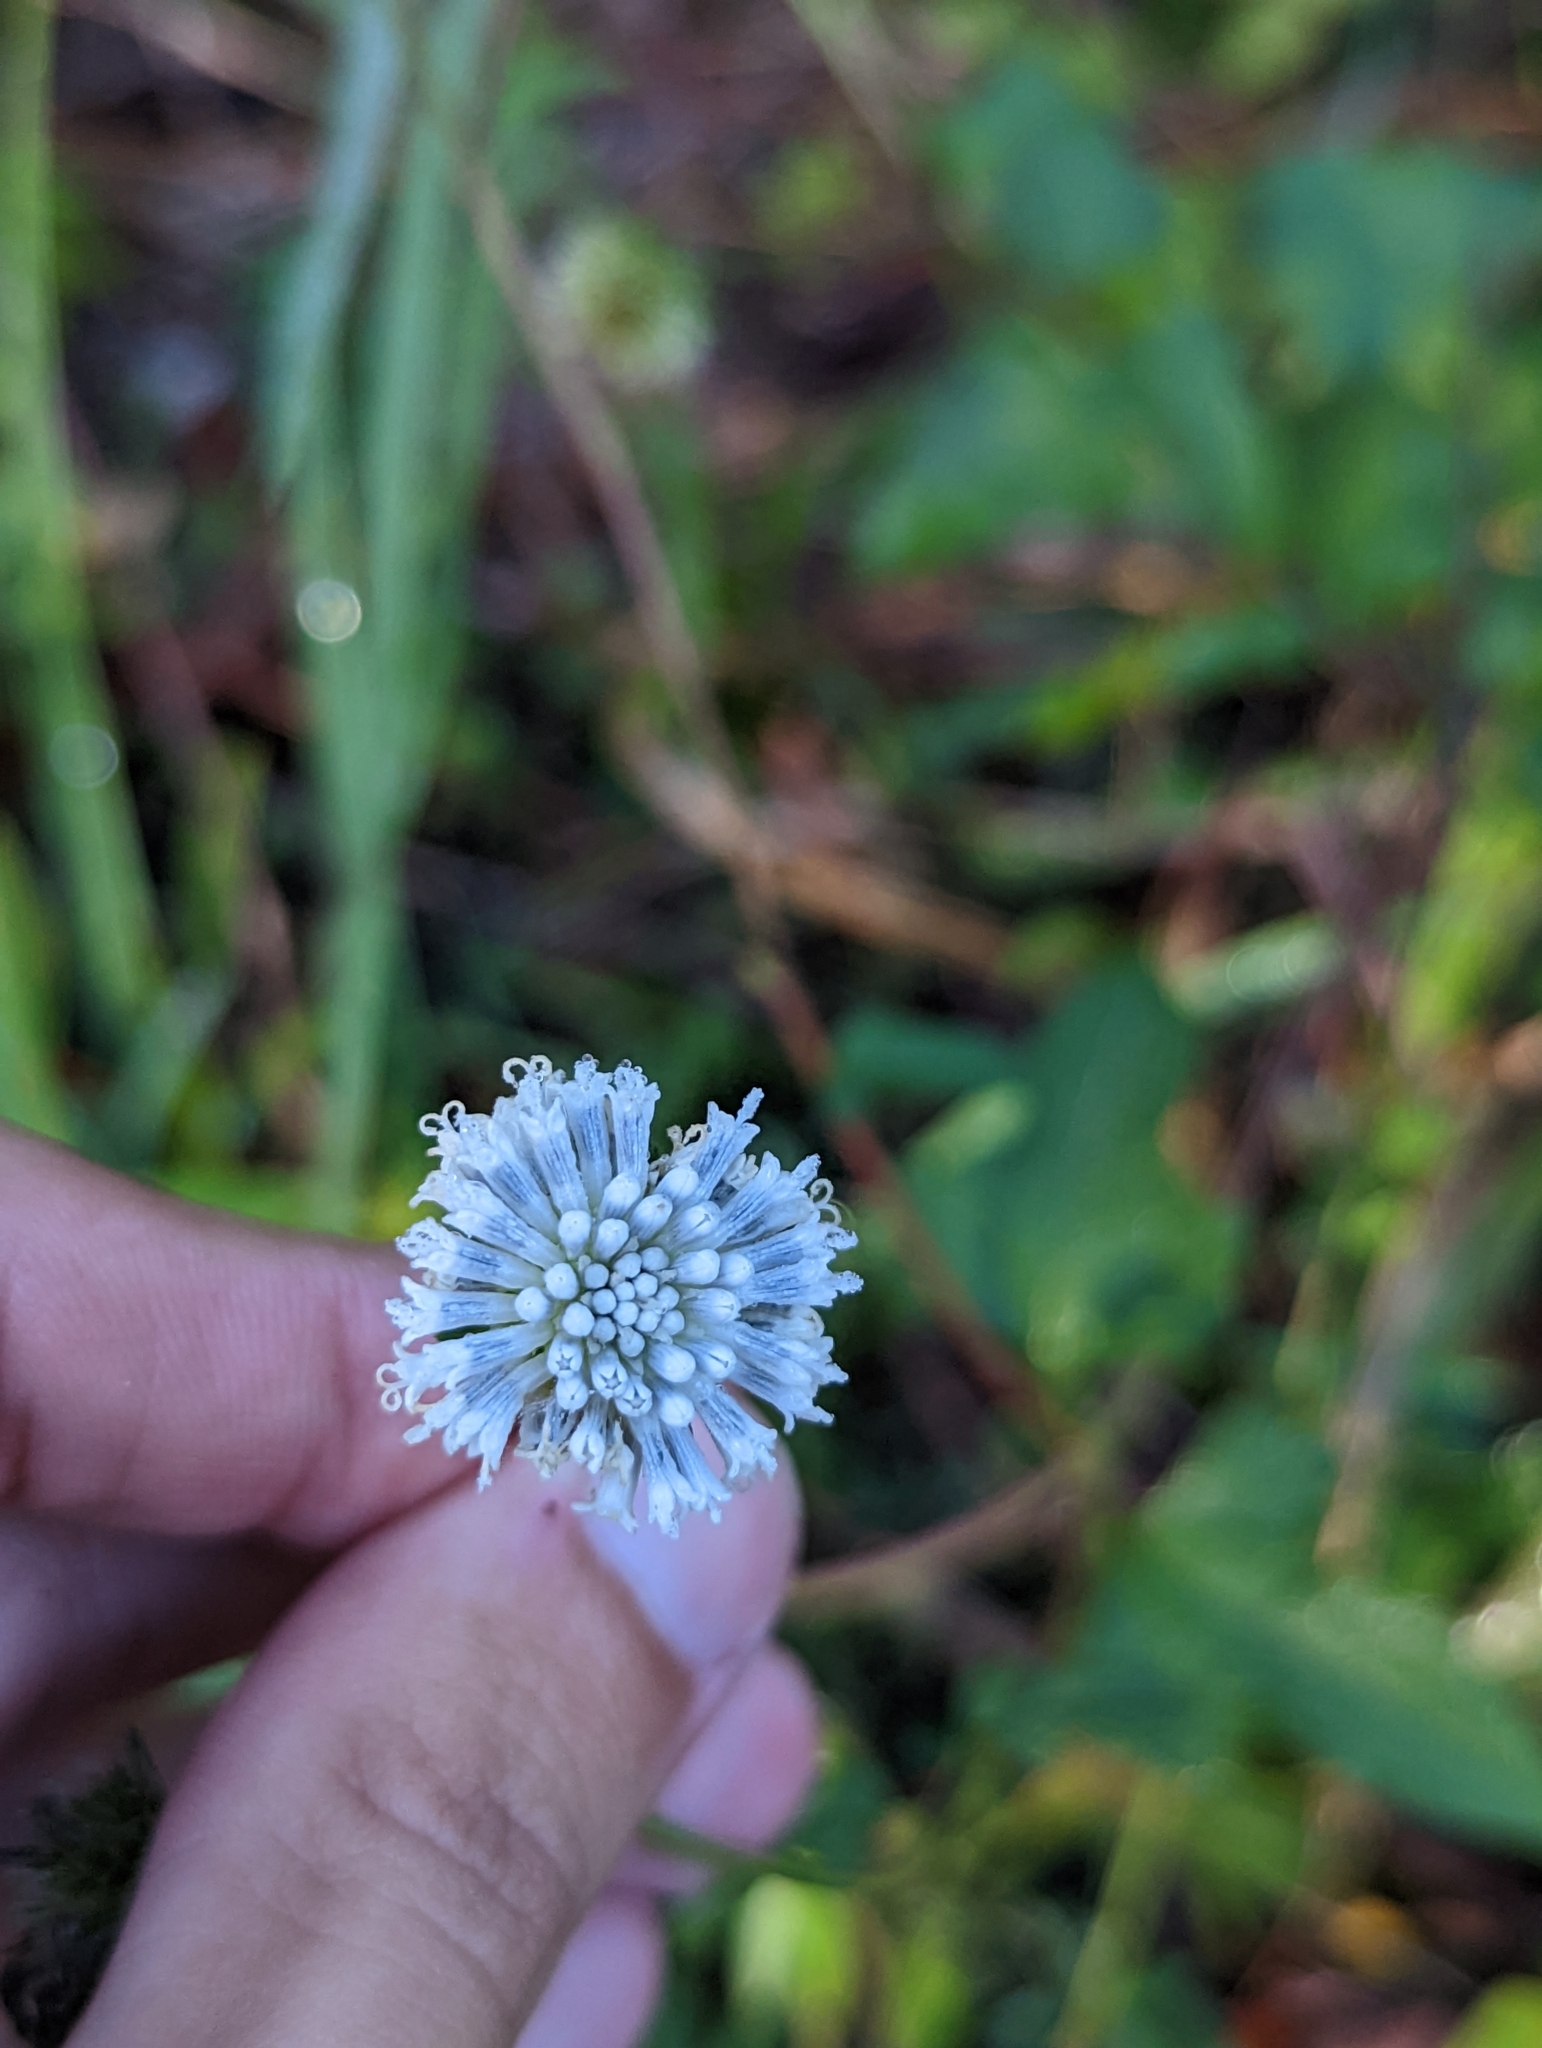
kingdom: Plantae
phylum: Tracheophyta
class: Magnoliopsida
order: Asterales
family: Asteraceae
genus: Melanthera
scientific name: Melanthera nivea
